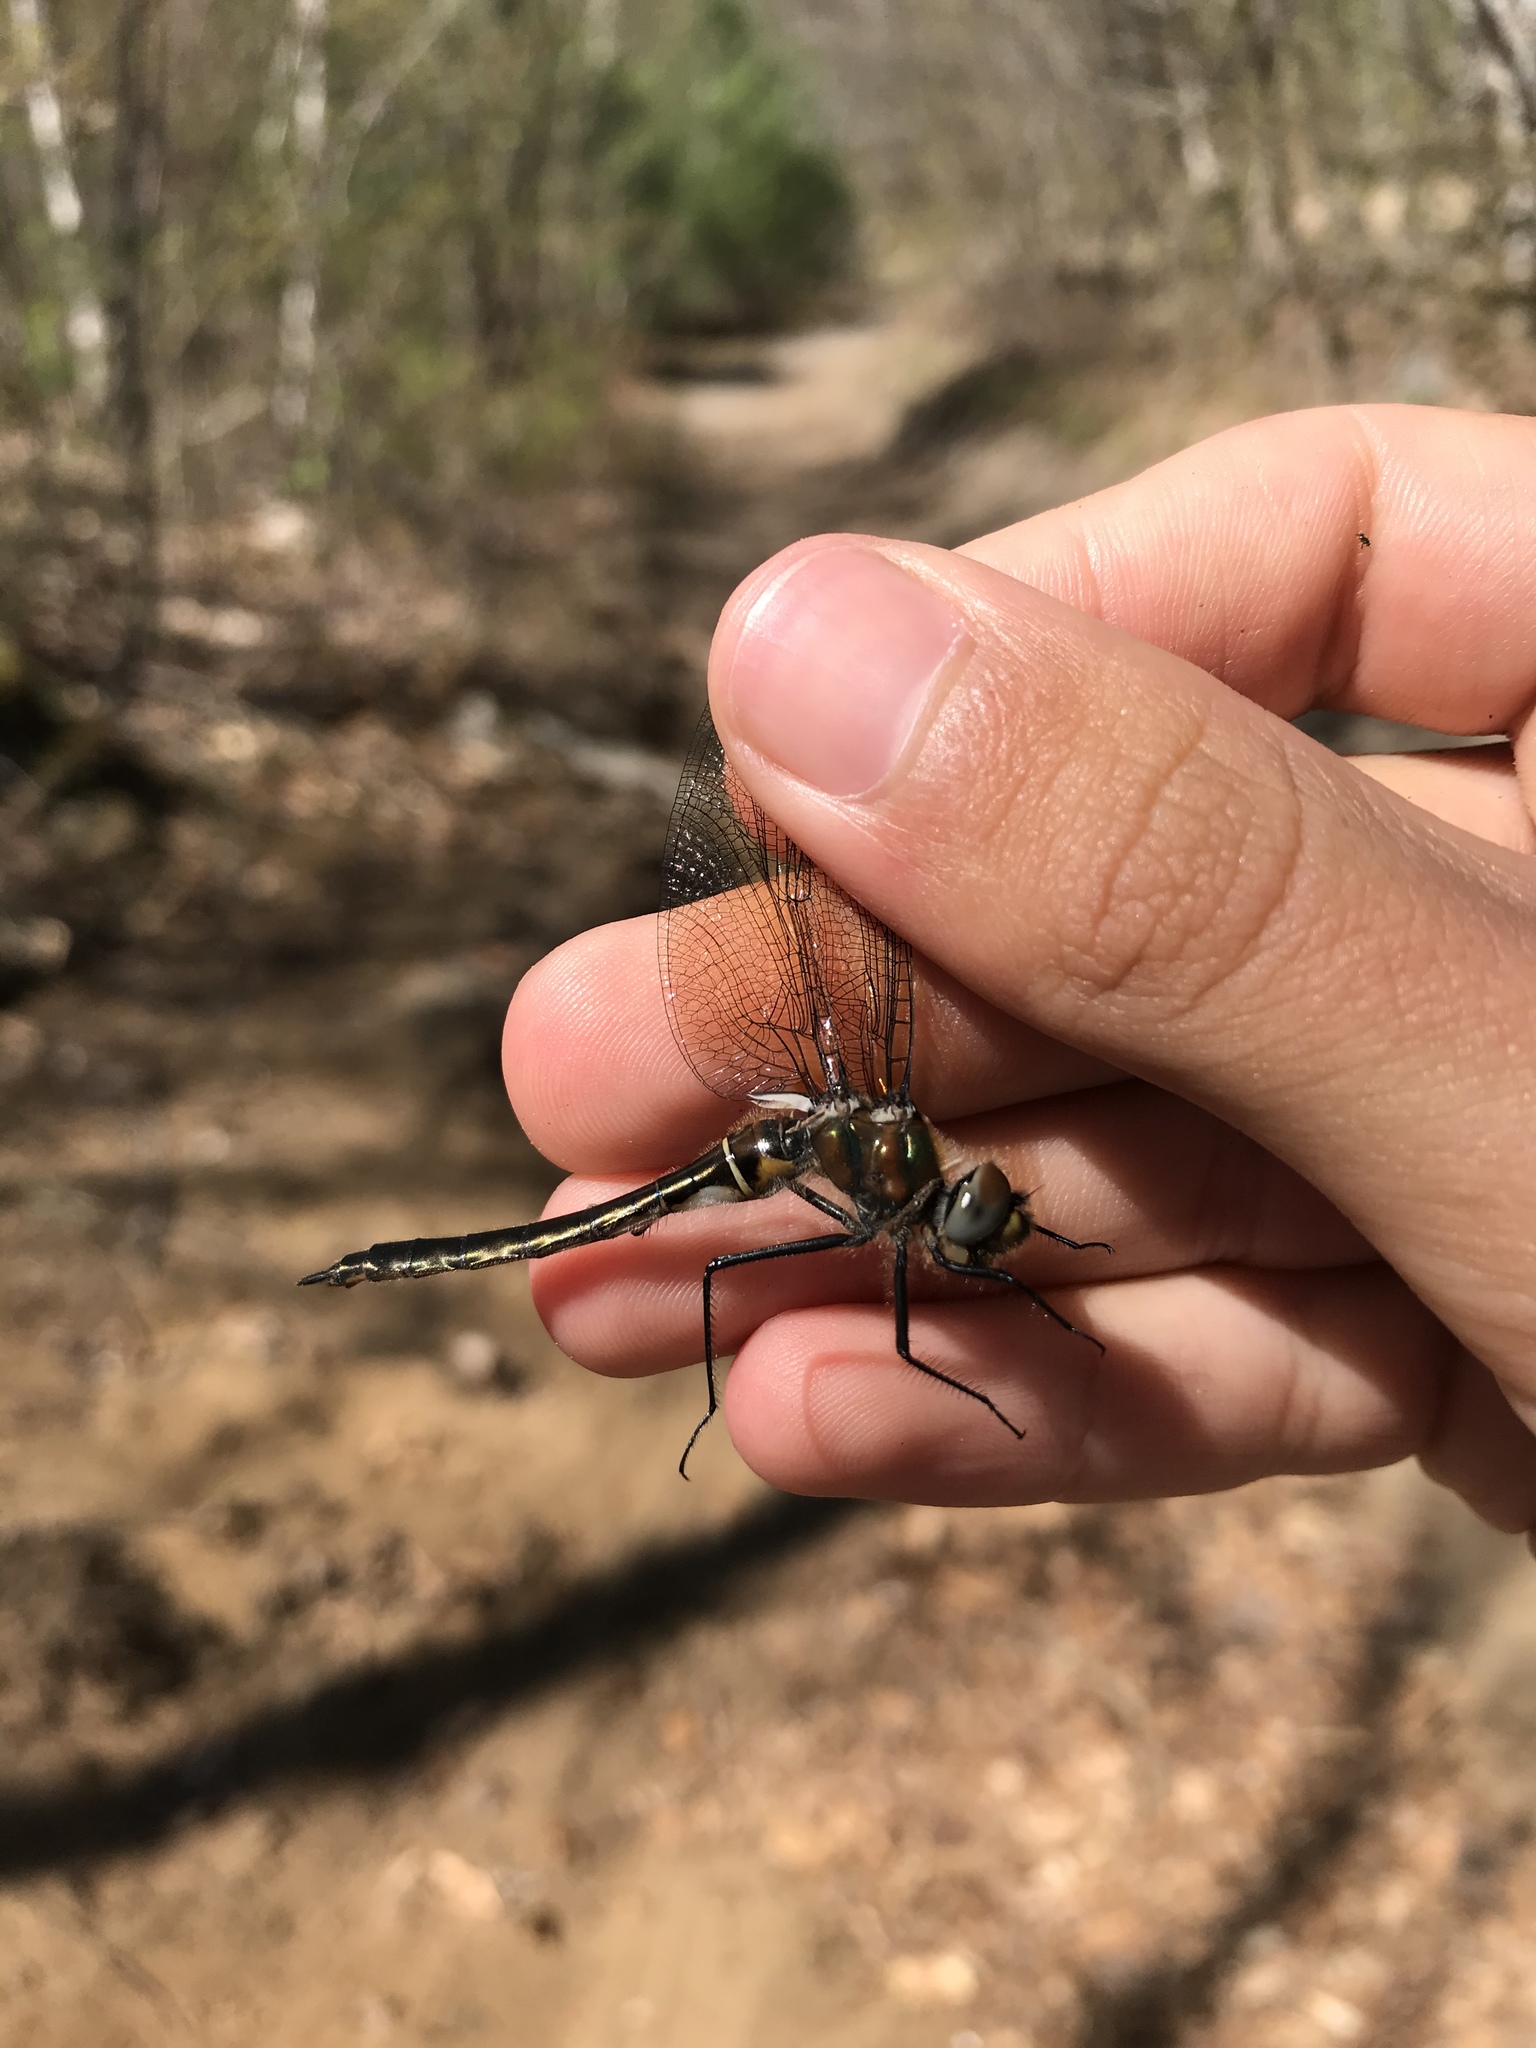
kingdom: Animalia
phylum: Arthropoda
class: Insecta
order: Odonata
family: Corduliidae
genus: Cordulia
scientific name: Cordulia shurtleffii
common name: American emerald
